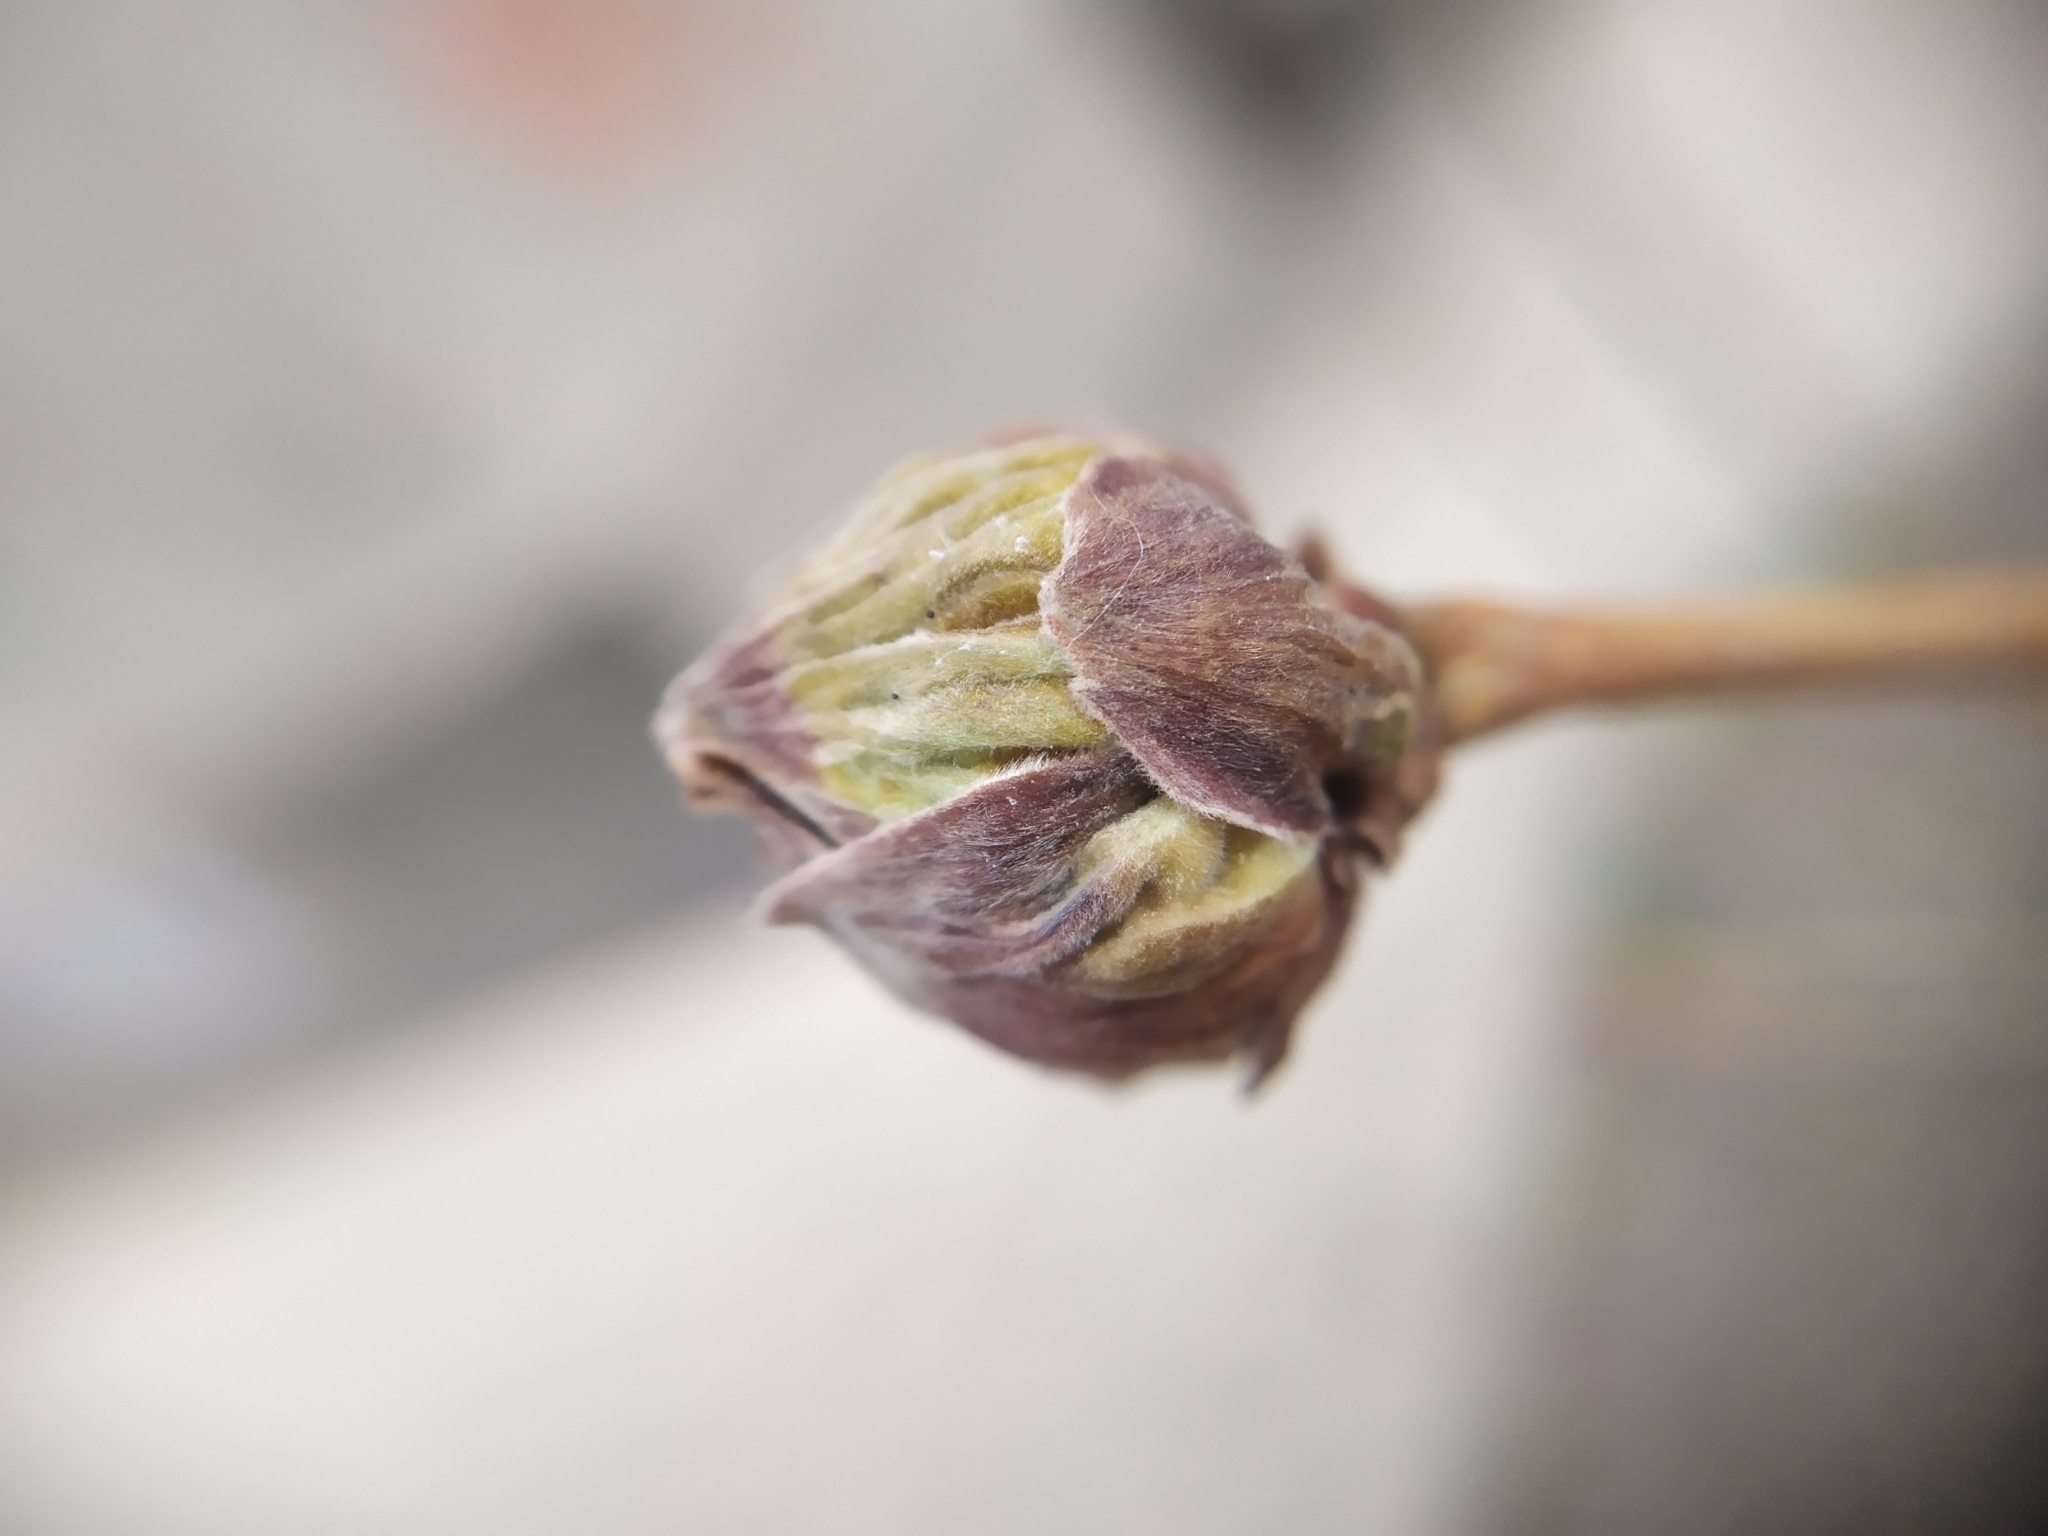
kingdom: Animalia
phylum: Arthropoda
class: Arachnida
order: Trombidiformes
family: Phytoptidae
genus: Phytoptus
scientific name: Phytoptus avellanae
